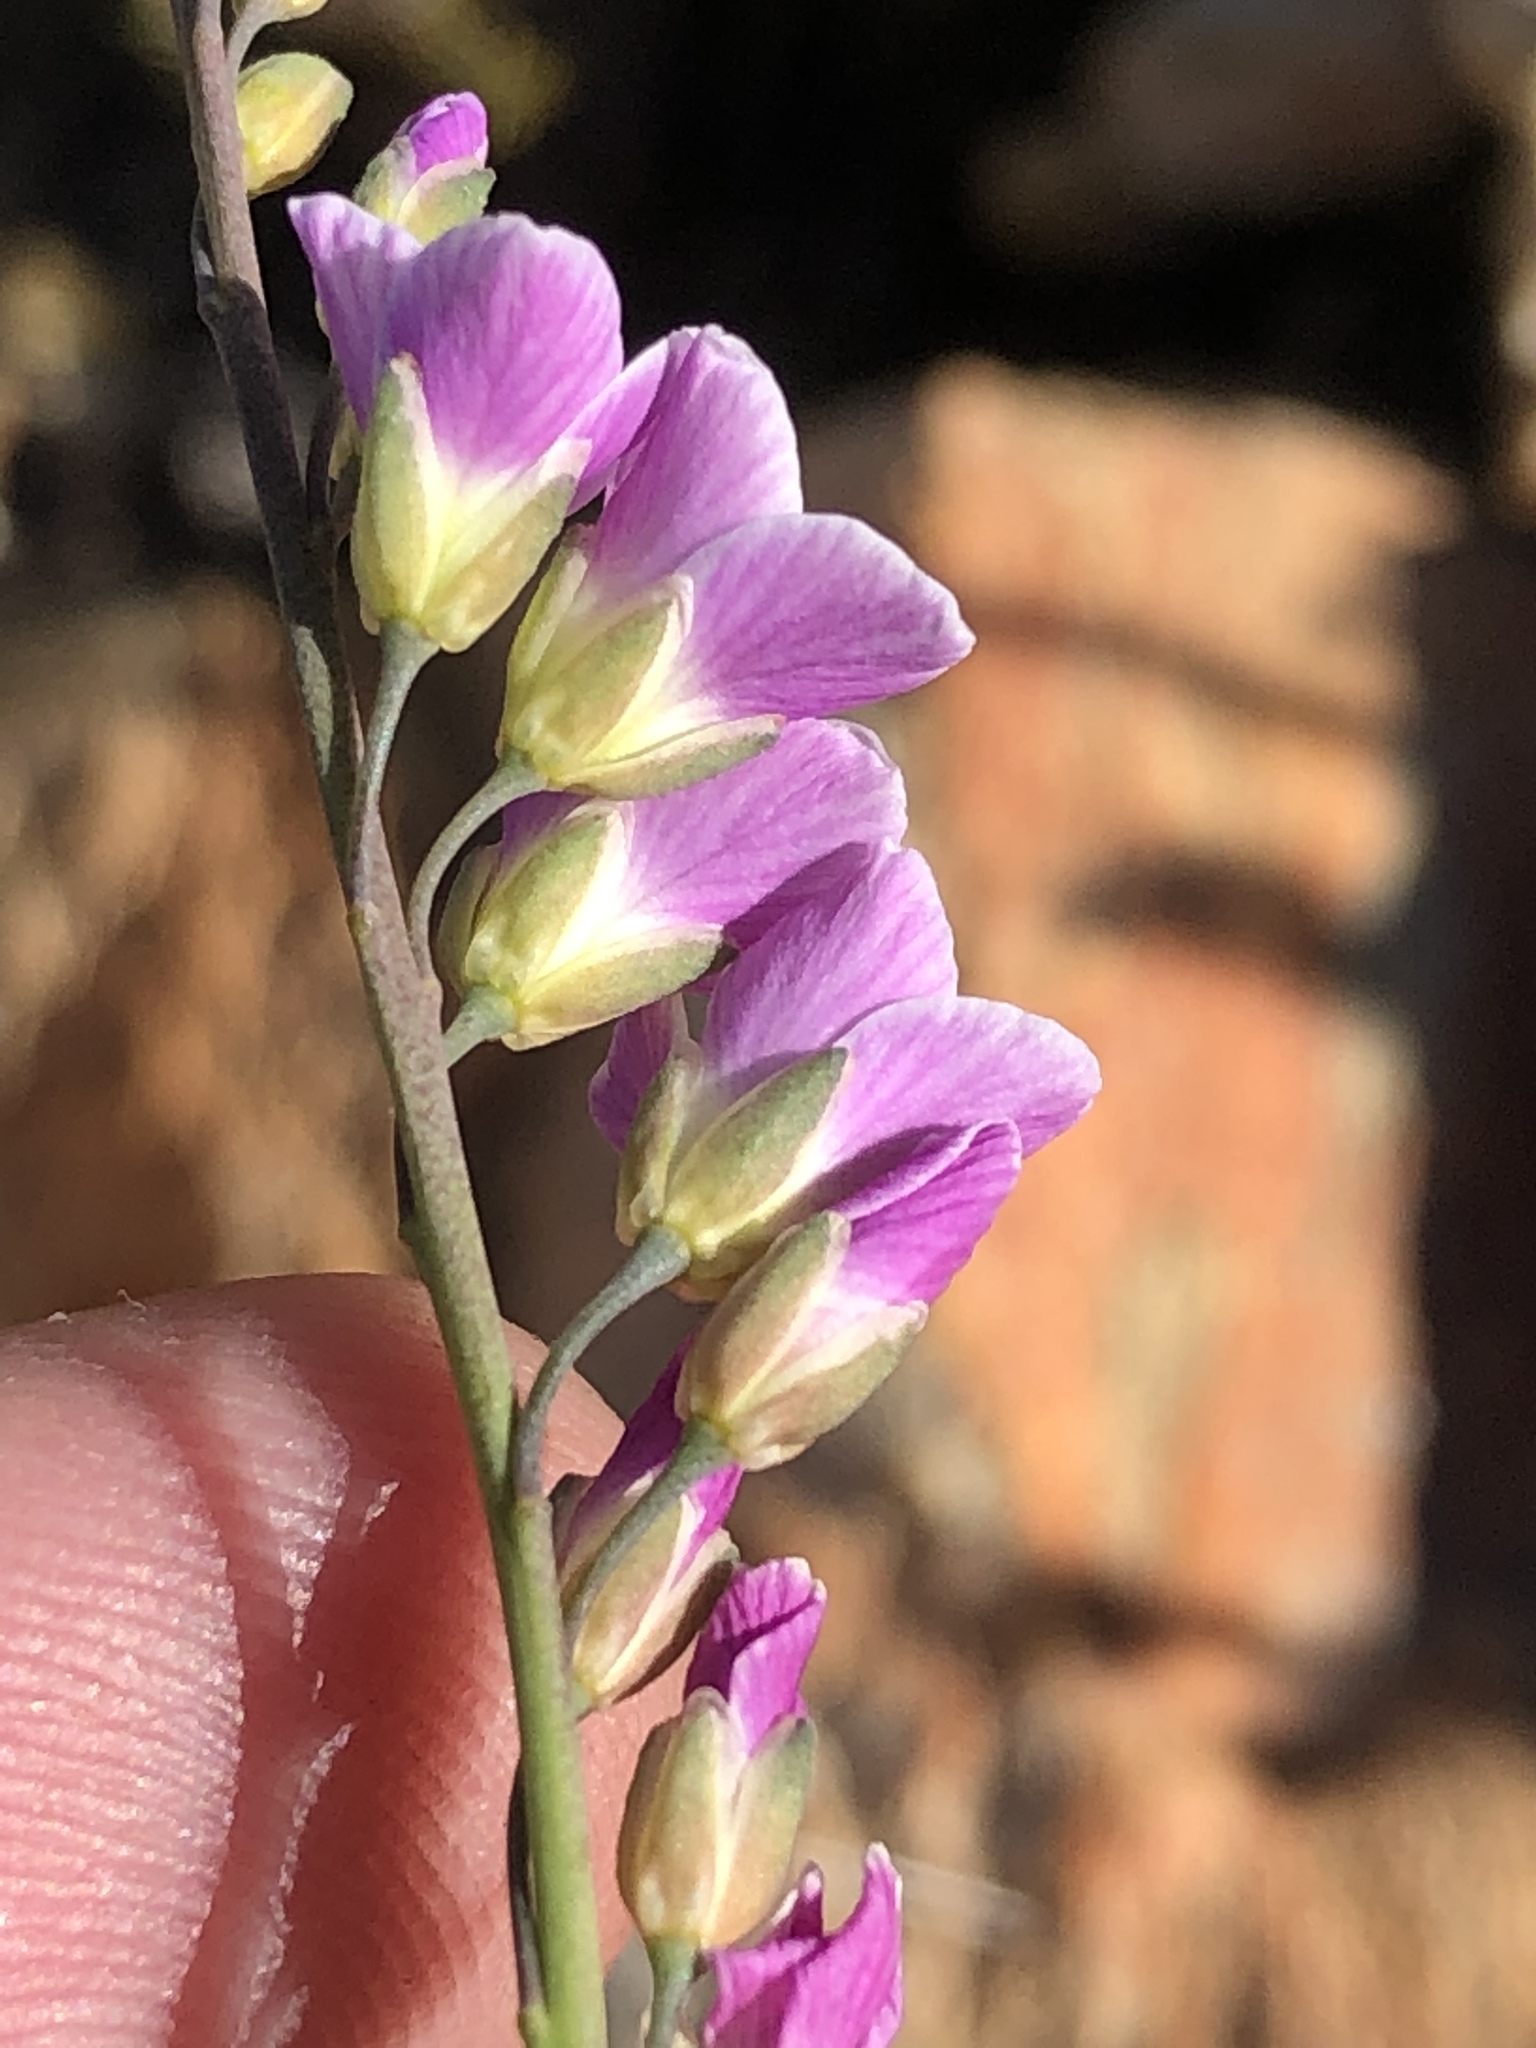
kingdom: Plantae
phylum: Tracheophyta
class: Magnoliopsida
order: Brassicales
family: Brassicaceae
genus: Heliophila
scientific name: Heliophila glauca
